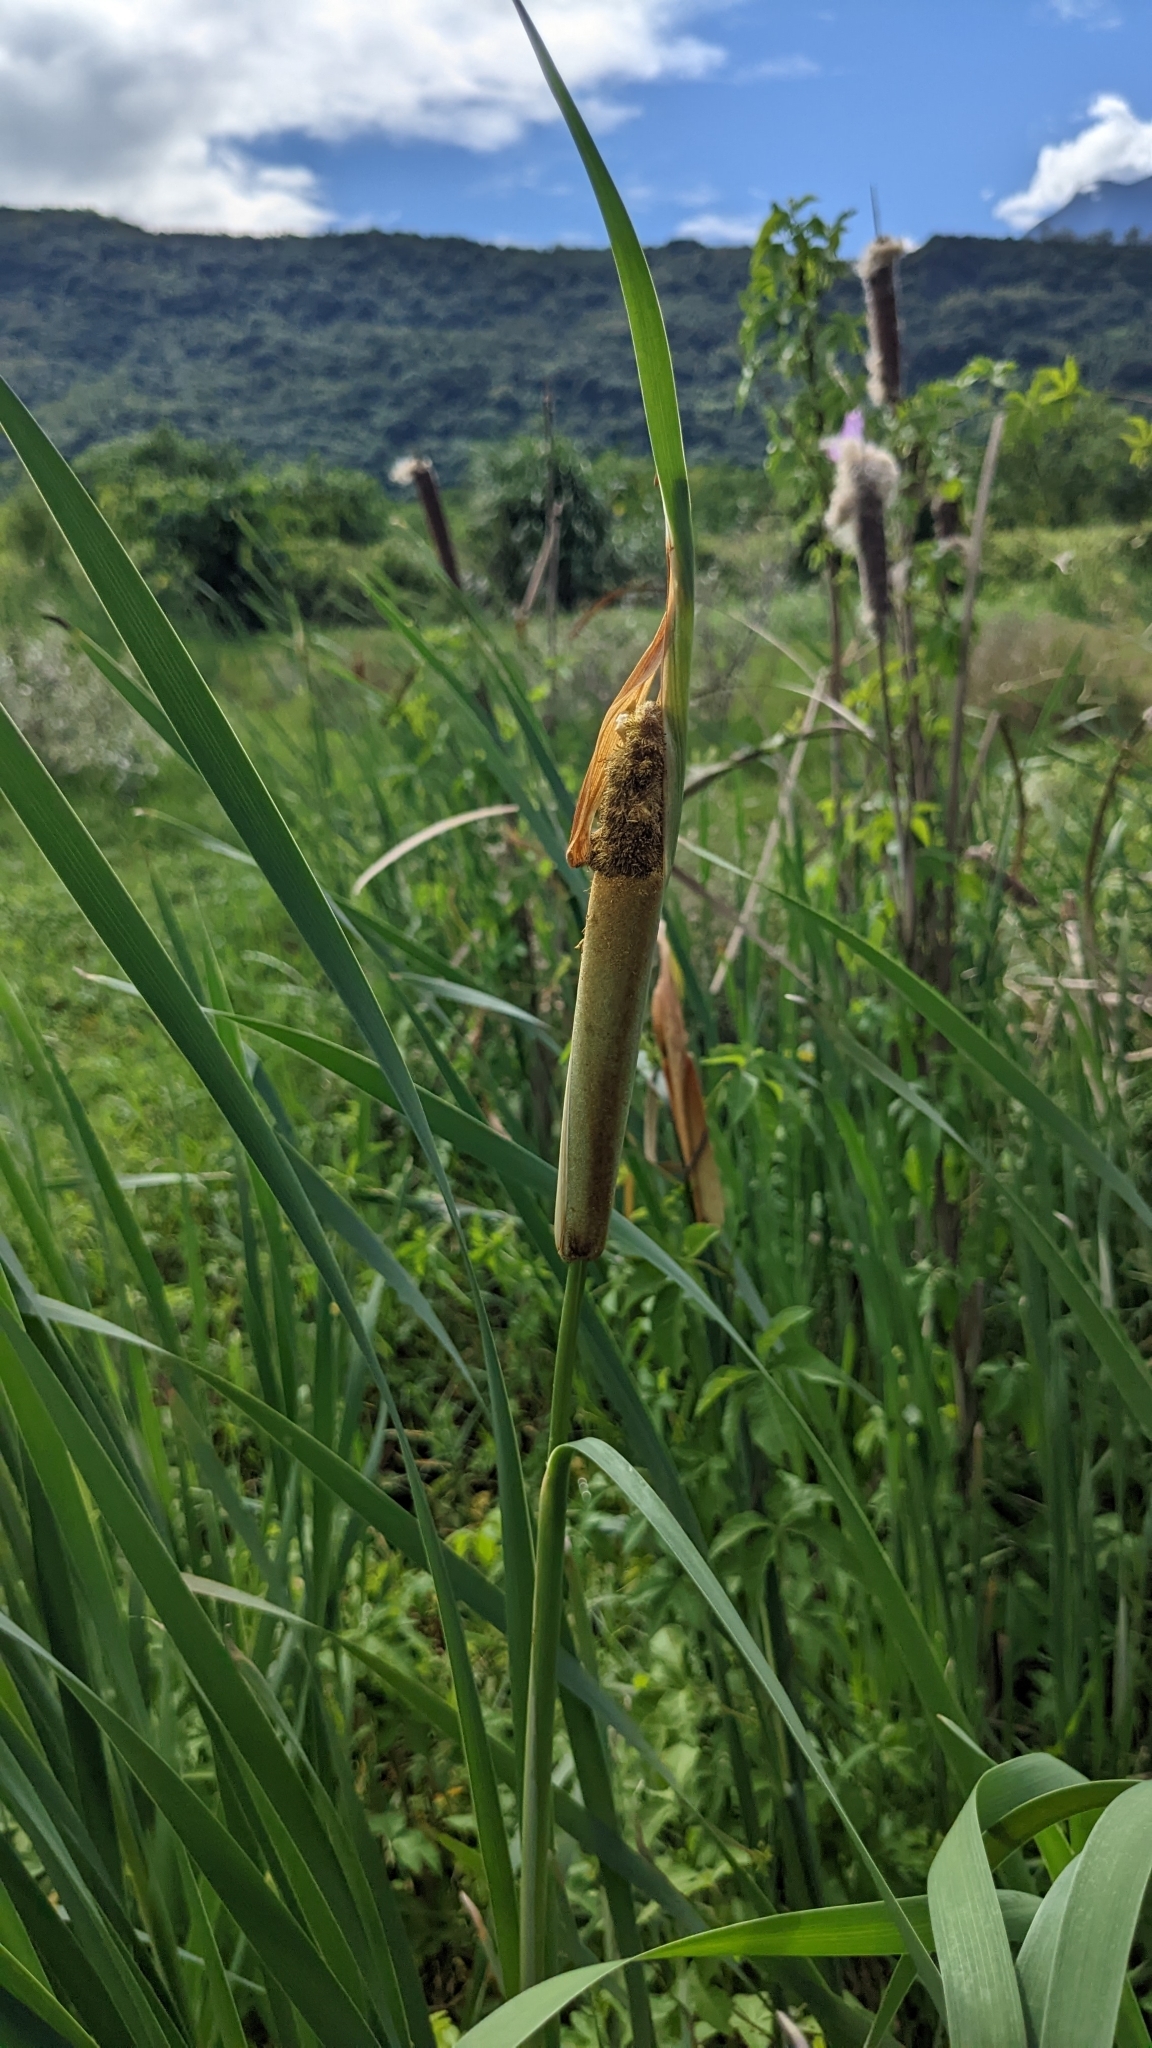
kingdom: Plantae
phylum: Tracheophyta
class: Liliopsida
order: Poales
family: Typhaceae
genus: Typha
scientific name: Typha orientalis
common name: Bullrush
